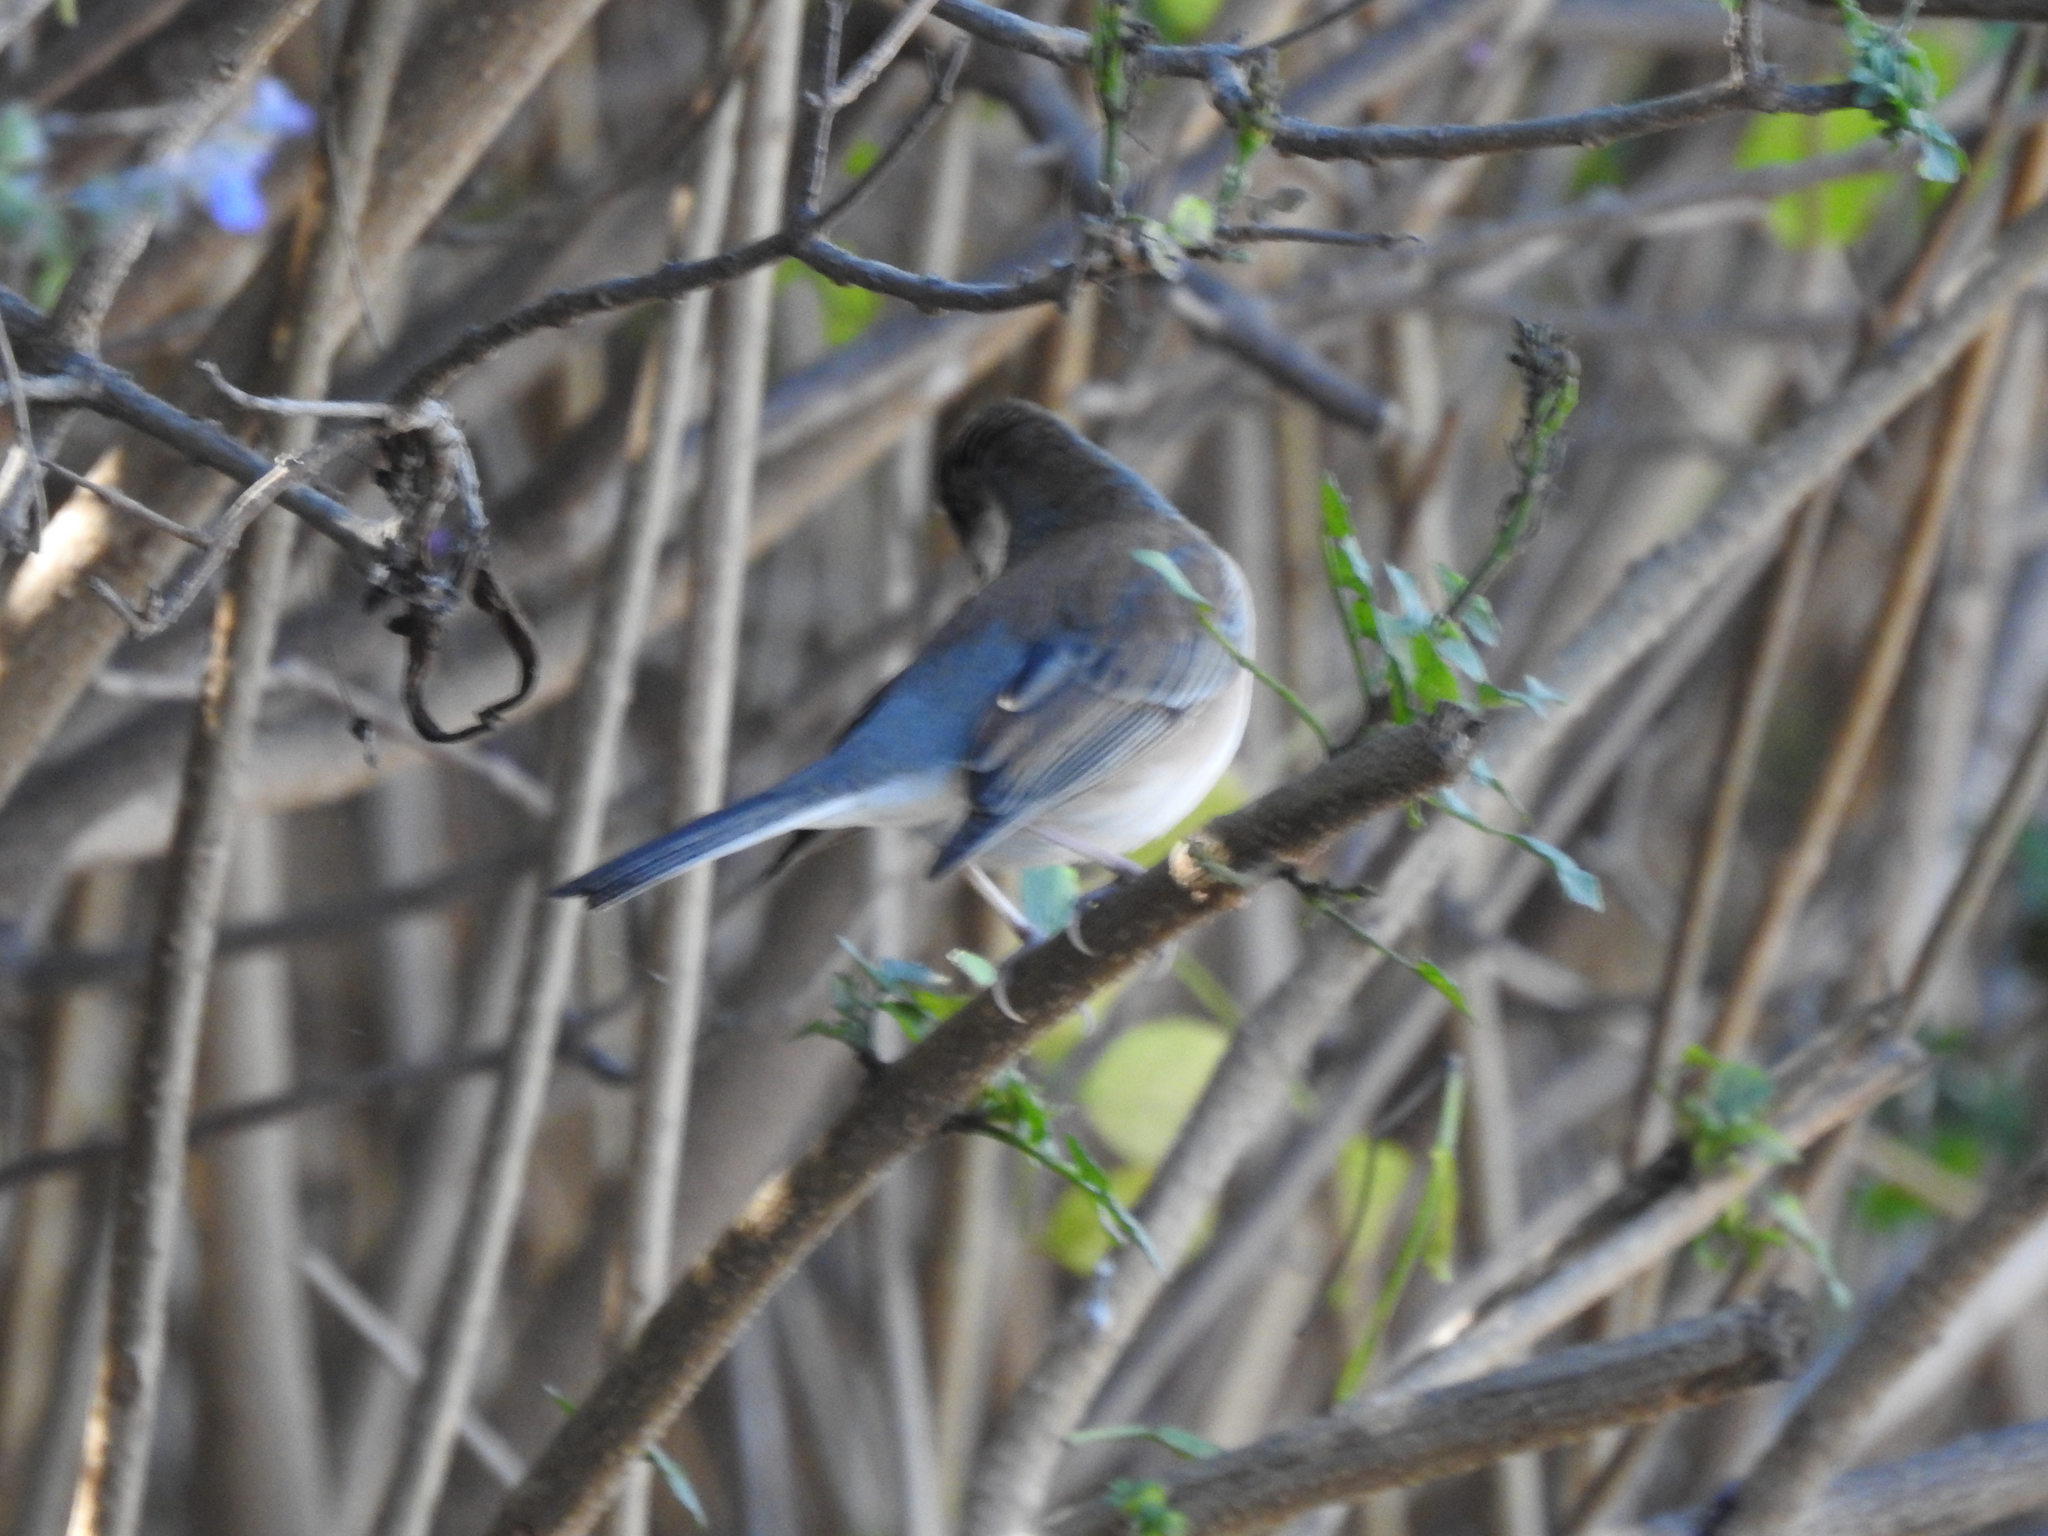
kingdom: Animalia
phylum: Chordata
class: Aves
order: Passeriformes
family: Passerellidae
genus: Junco
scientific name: Junco hyemalis
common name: Dark-eyed junco
